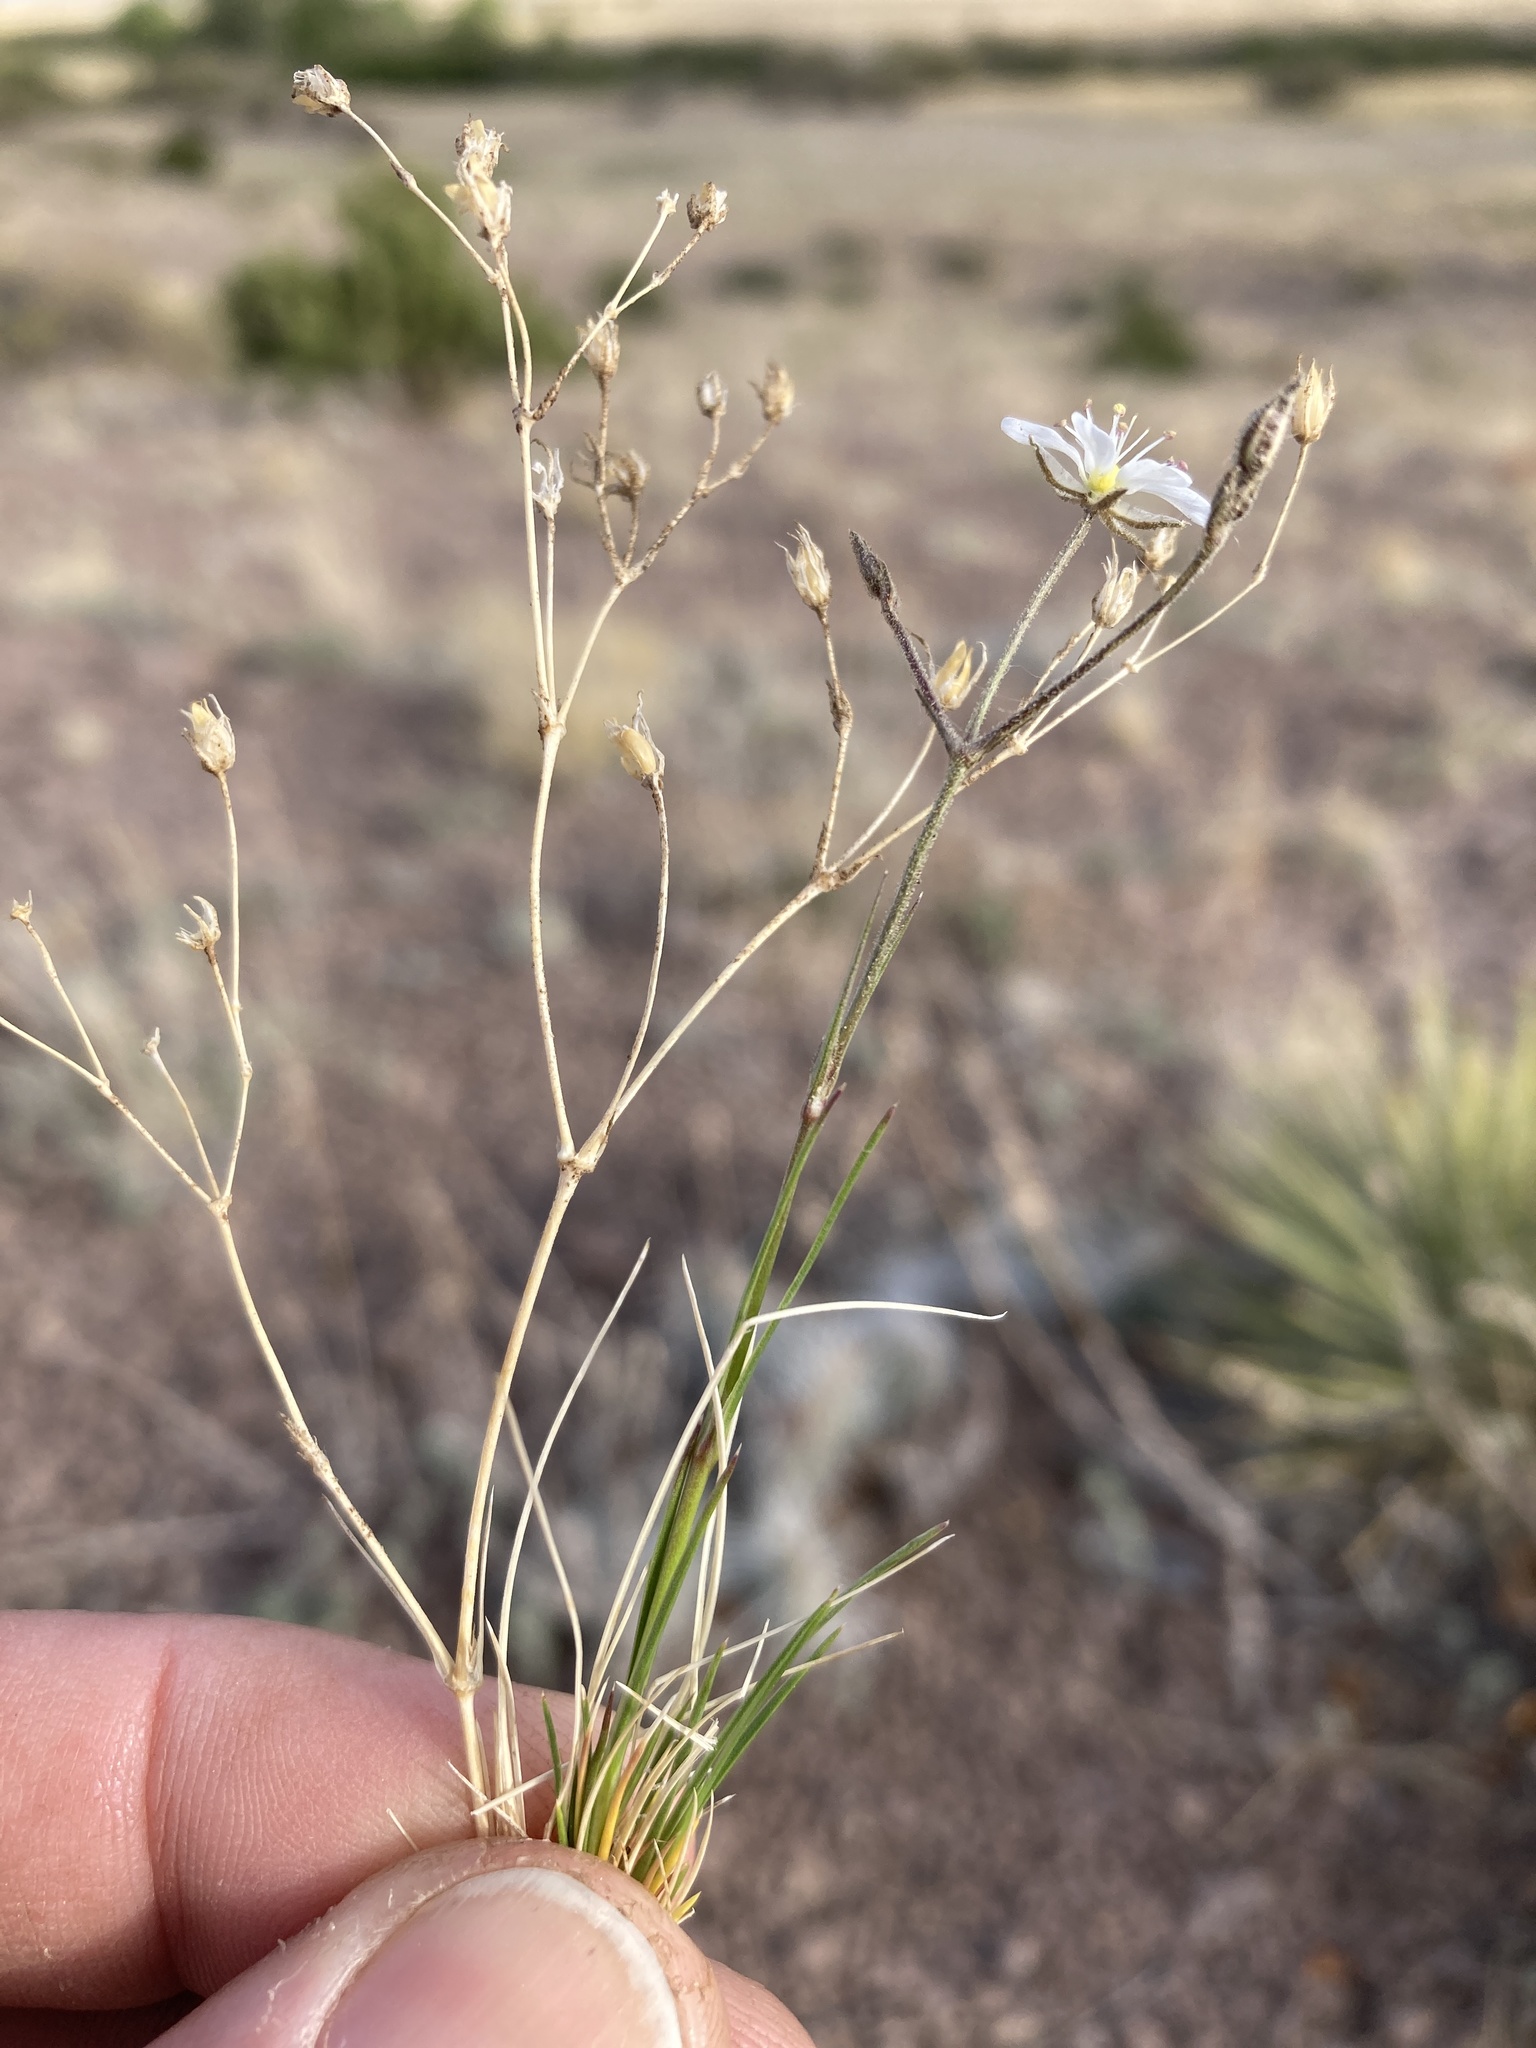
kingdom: Plantae
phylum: Tracheophyta
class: Magnoliopsida
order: Caryophyllales
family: Caryophyllaceae
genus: Eremogone
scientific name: Eremogone fendleri
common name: Fendler's sandwort
